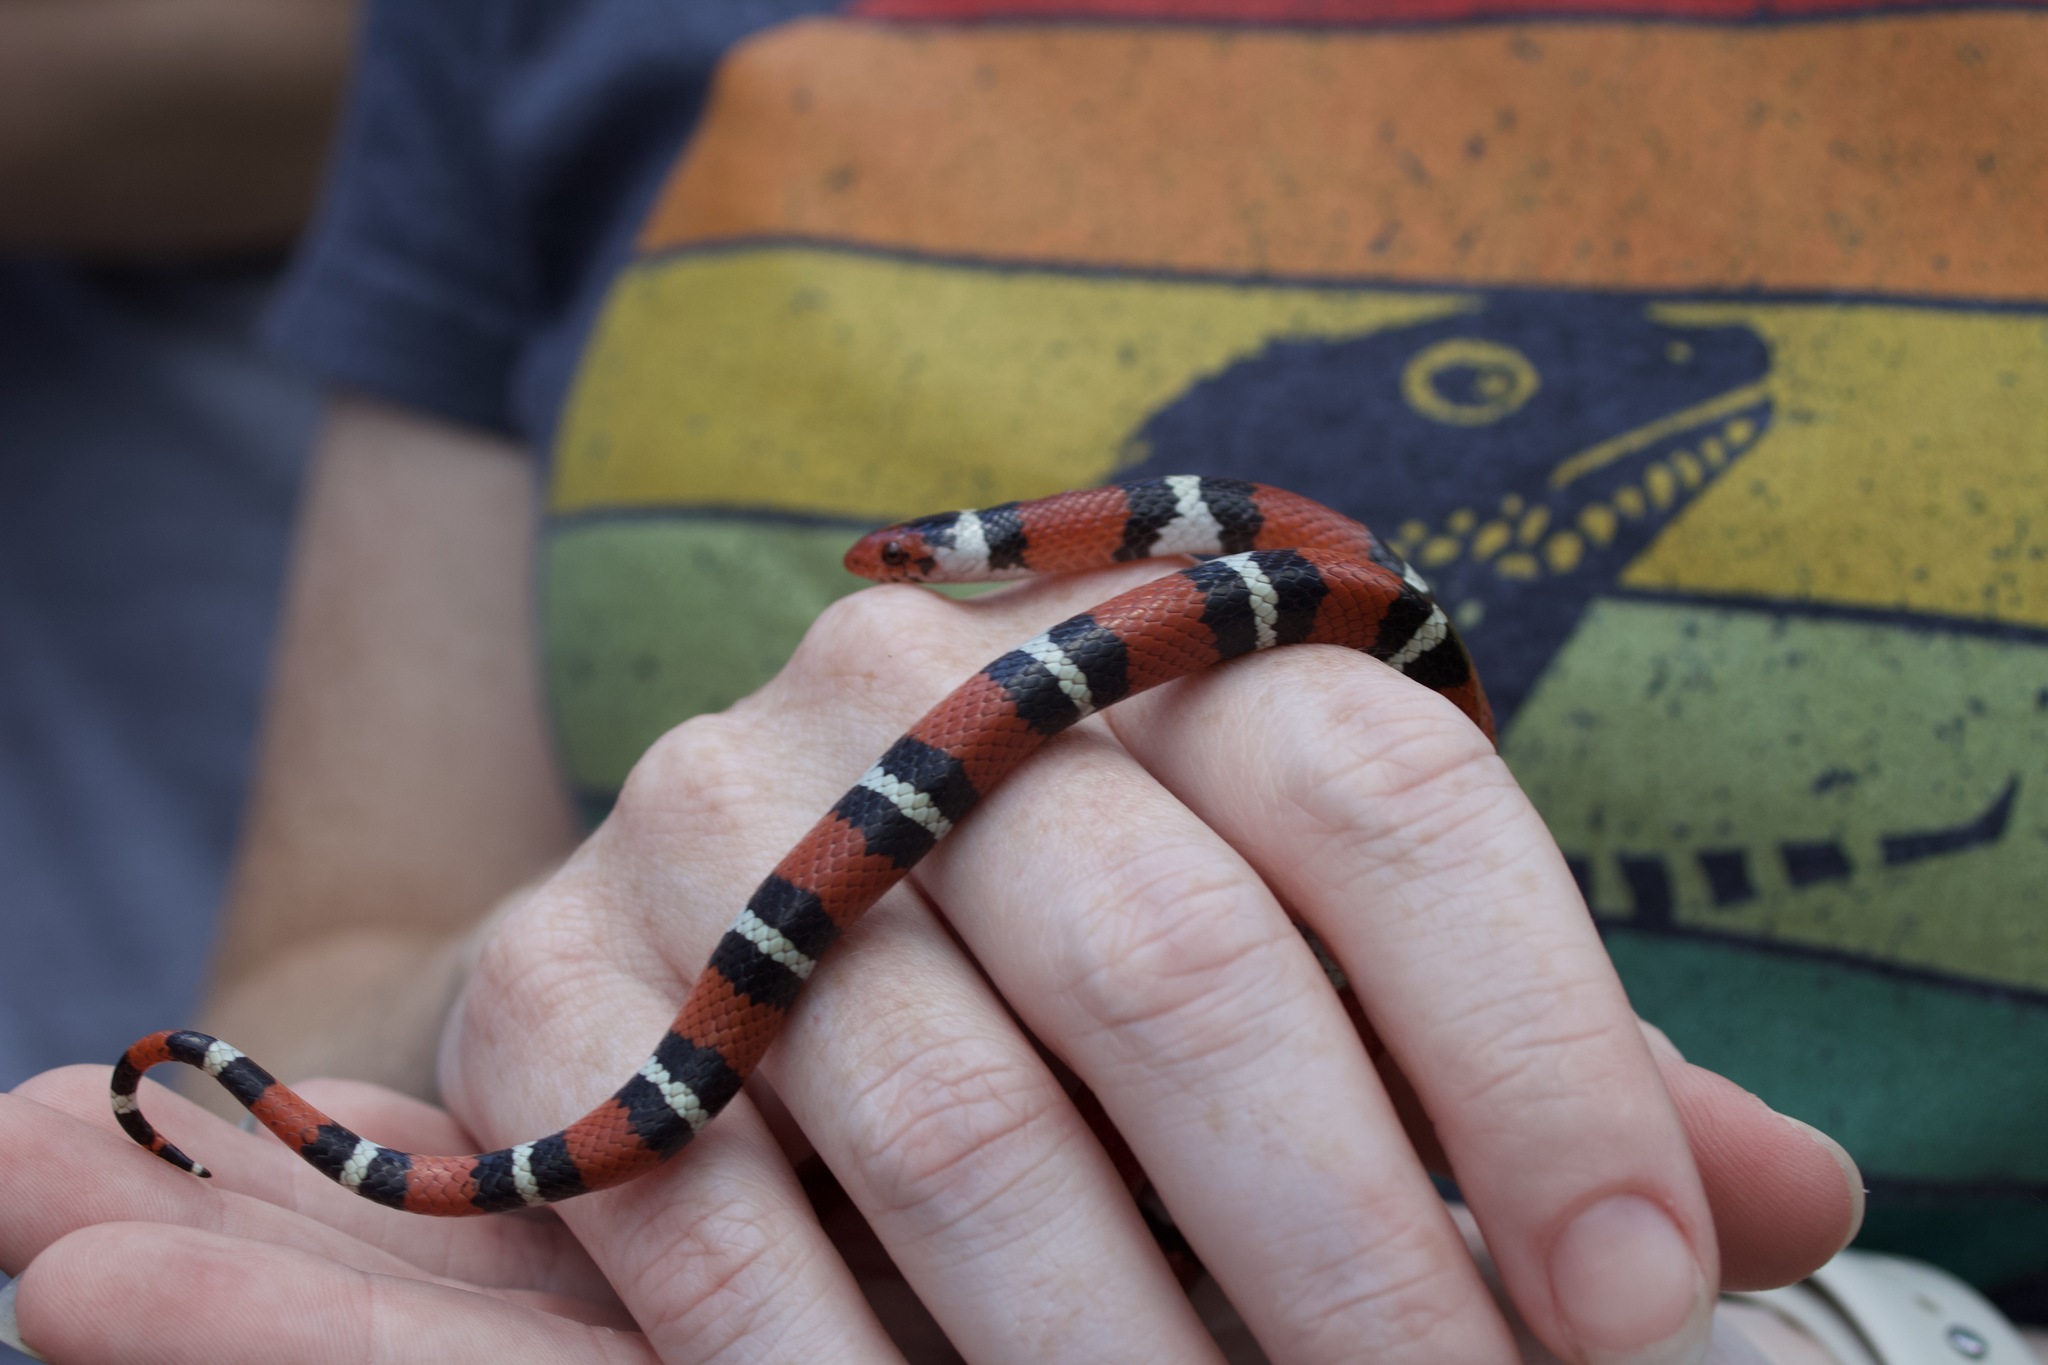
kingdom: Animalia
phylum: Chordata
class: Squamata
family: Colubridae
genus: Lampropeltis
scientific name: Lampropeltis elapsoides
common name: Scarlet kingsnake
